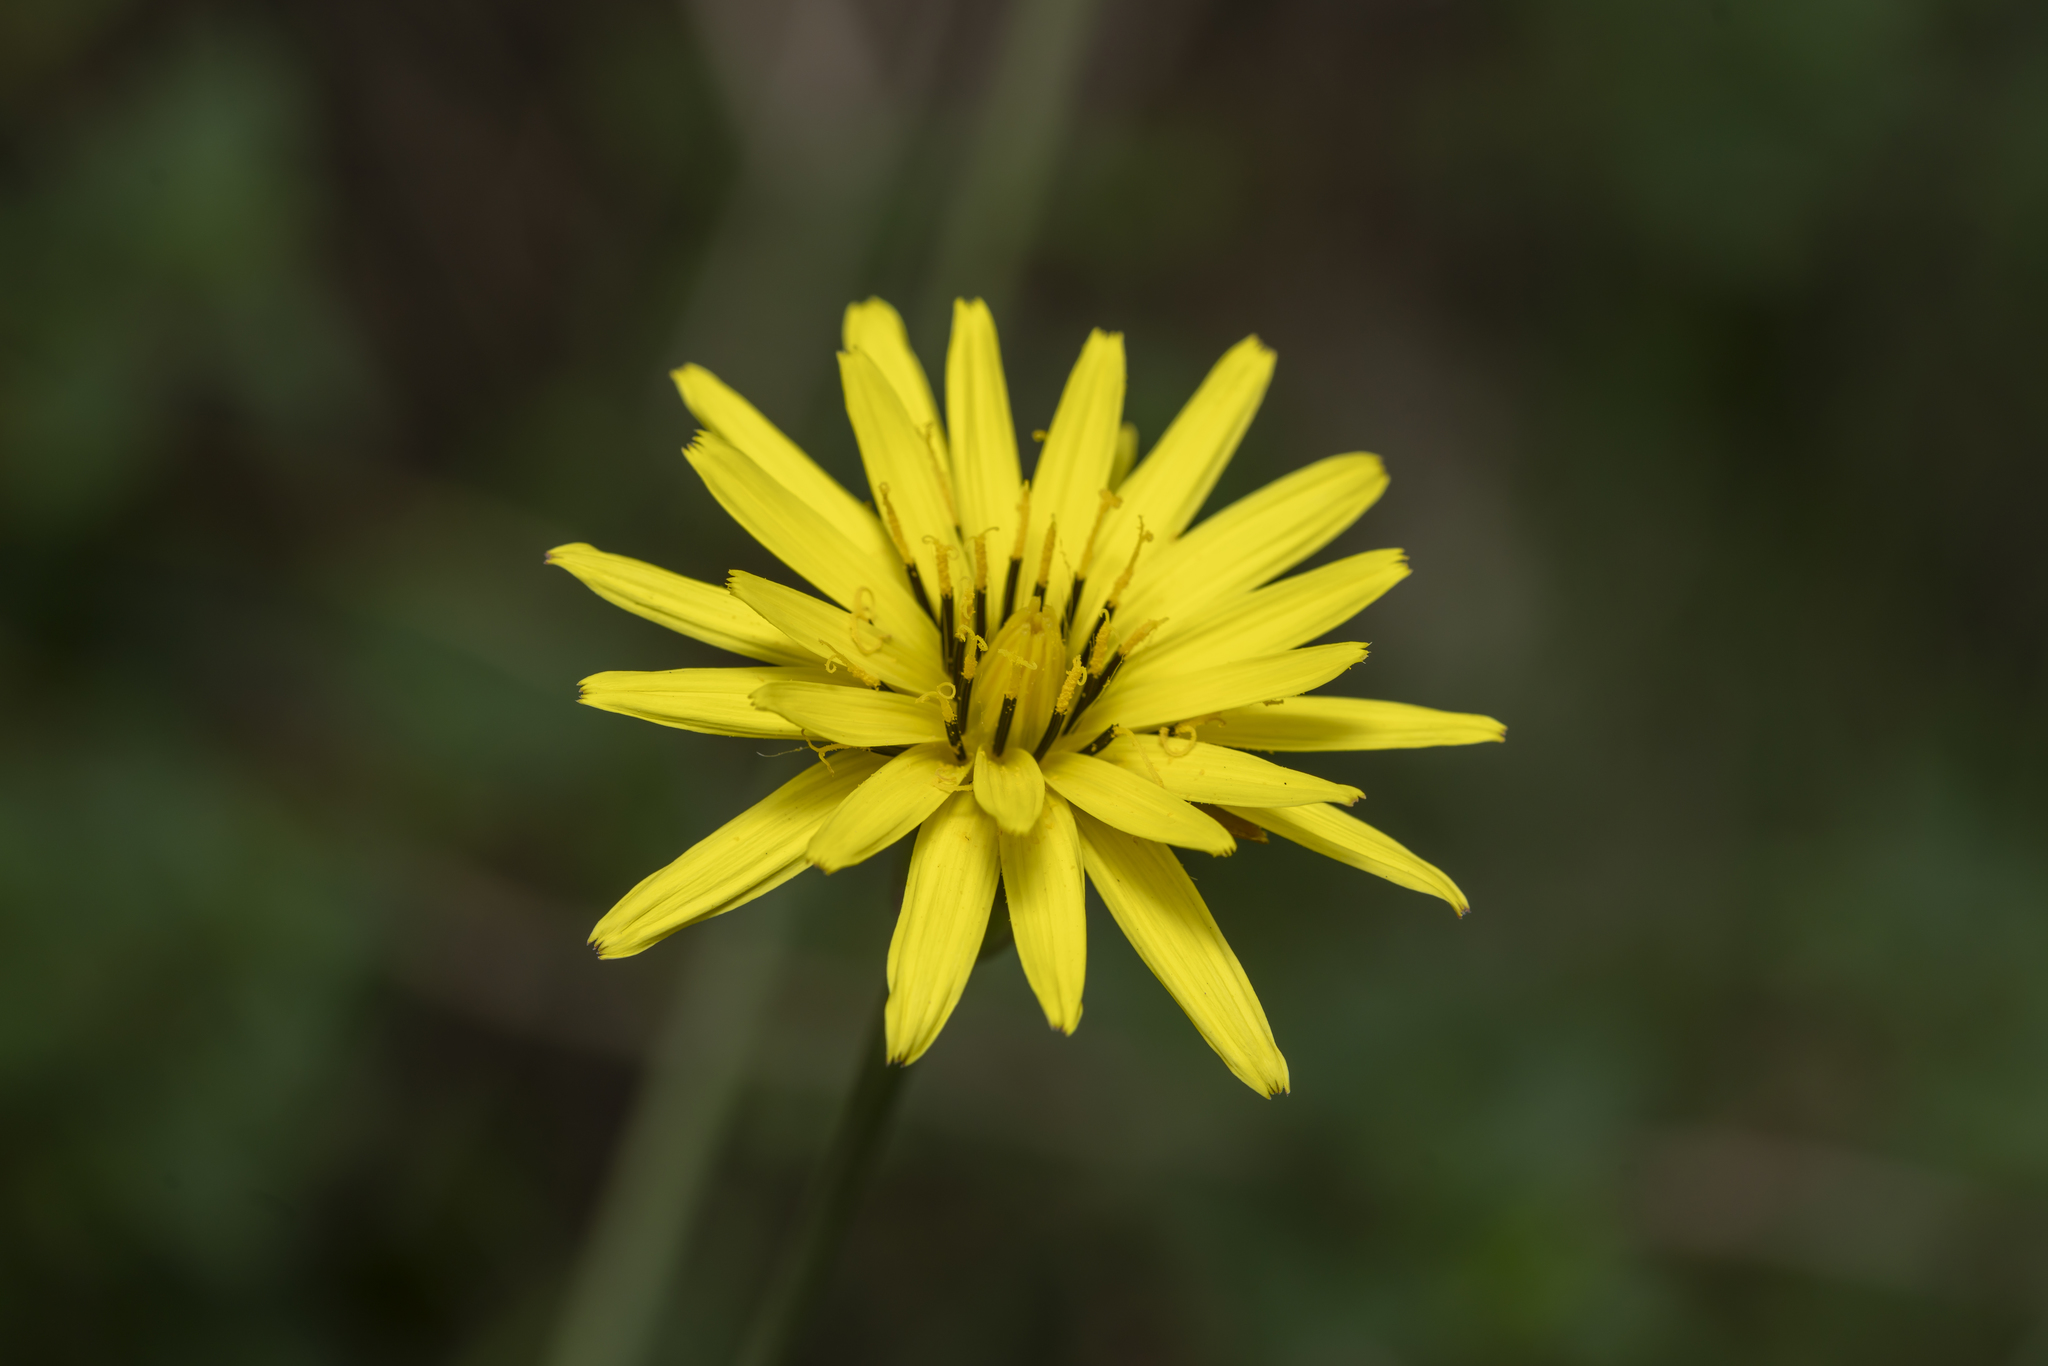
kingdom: Plantae
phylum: Tracheophyta
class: Magnoliopsida
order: Asterales
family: Asteraceae
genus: Candollea
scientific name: Candollea elata
